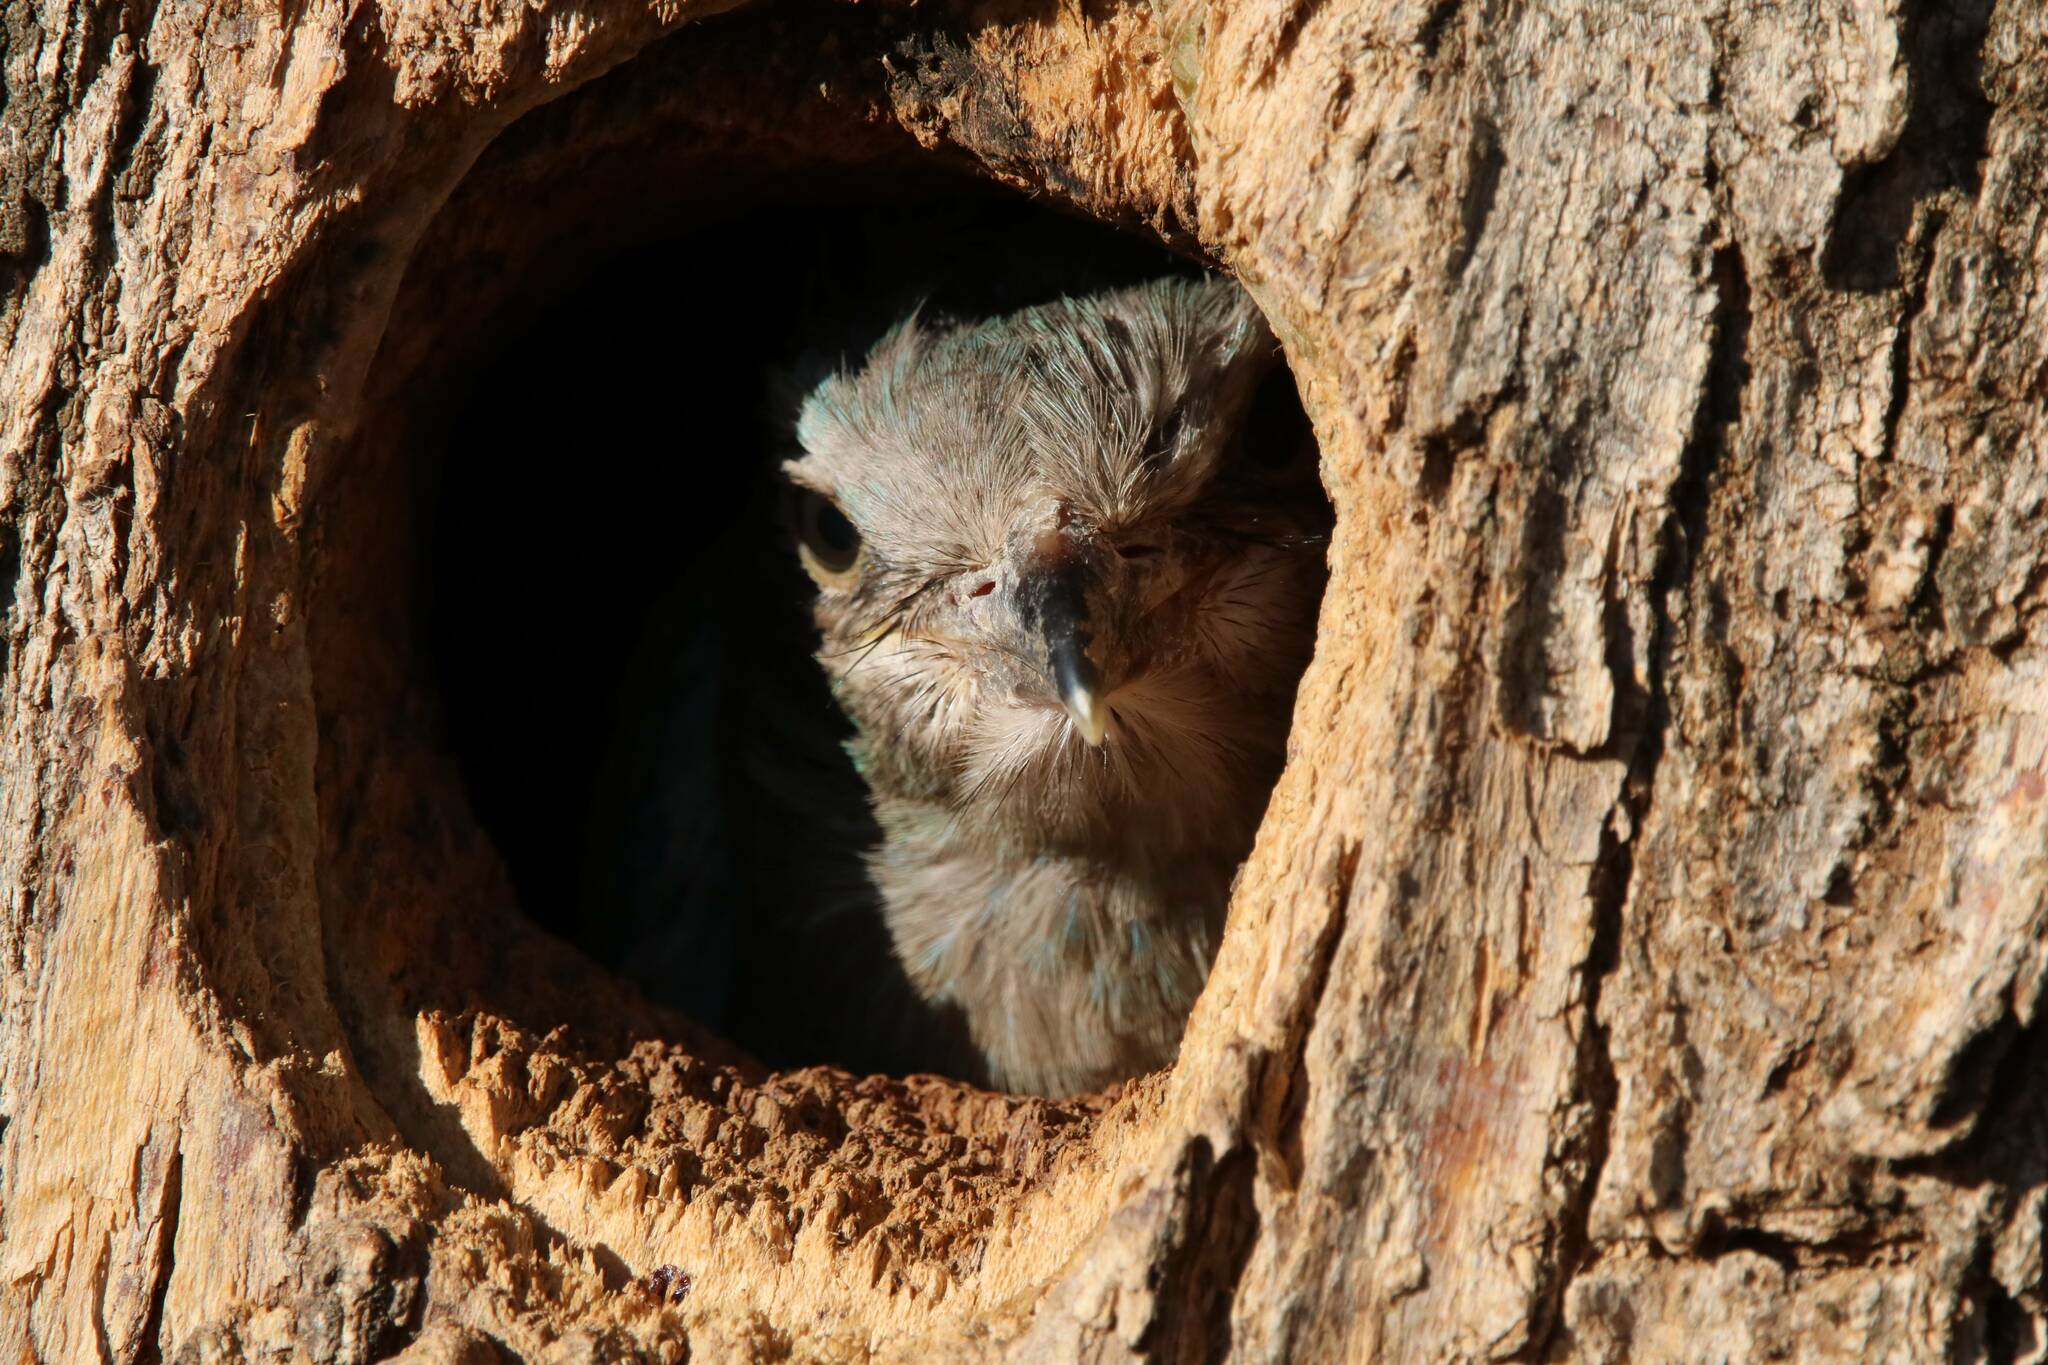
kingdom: Animalia
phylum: Chordata
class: Aves
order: Coraciiformes
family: Coraciidae
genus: Coracias
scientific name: Coracias garrulus
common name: European roller
